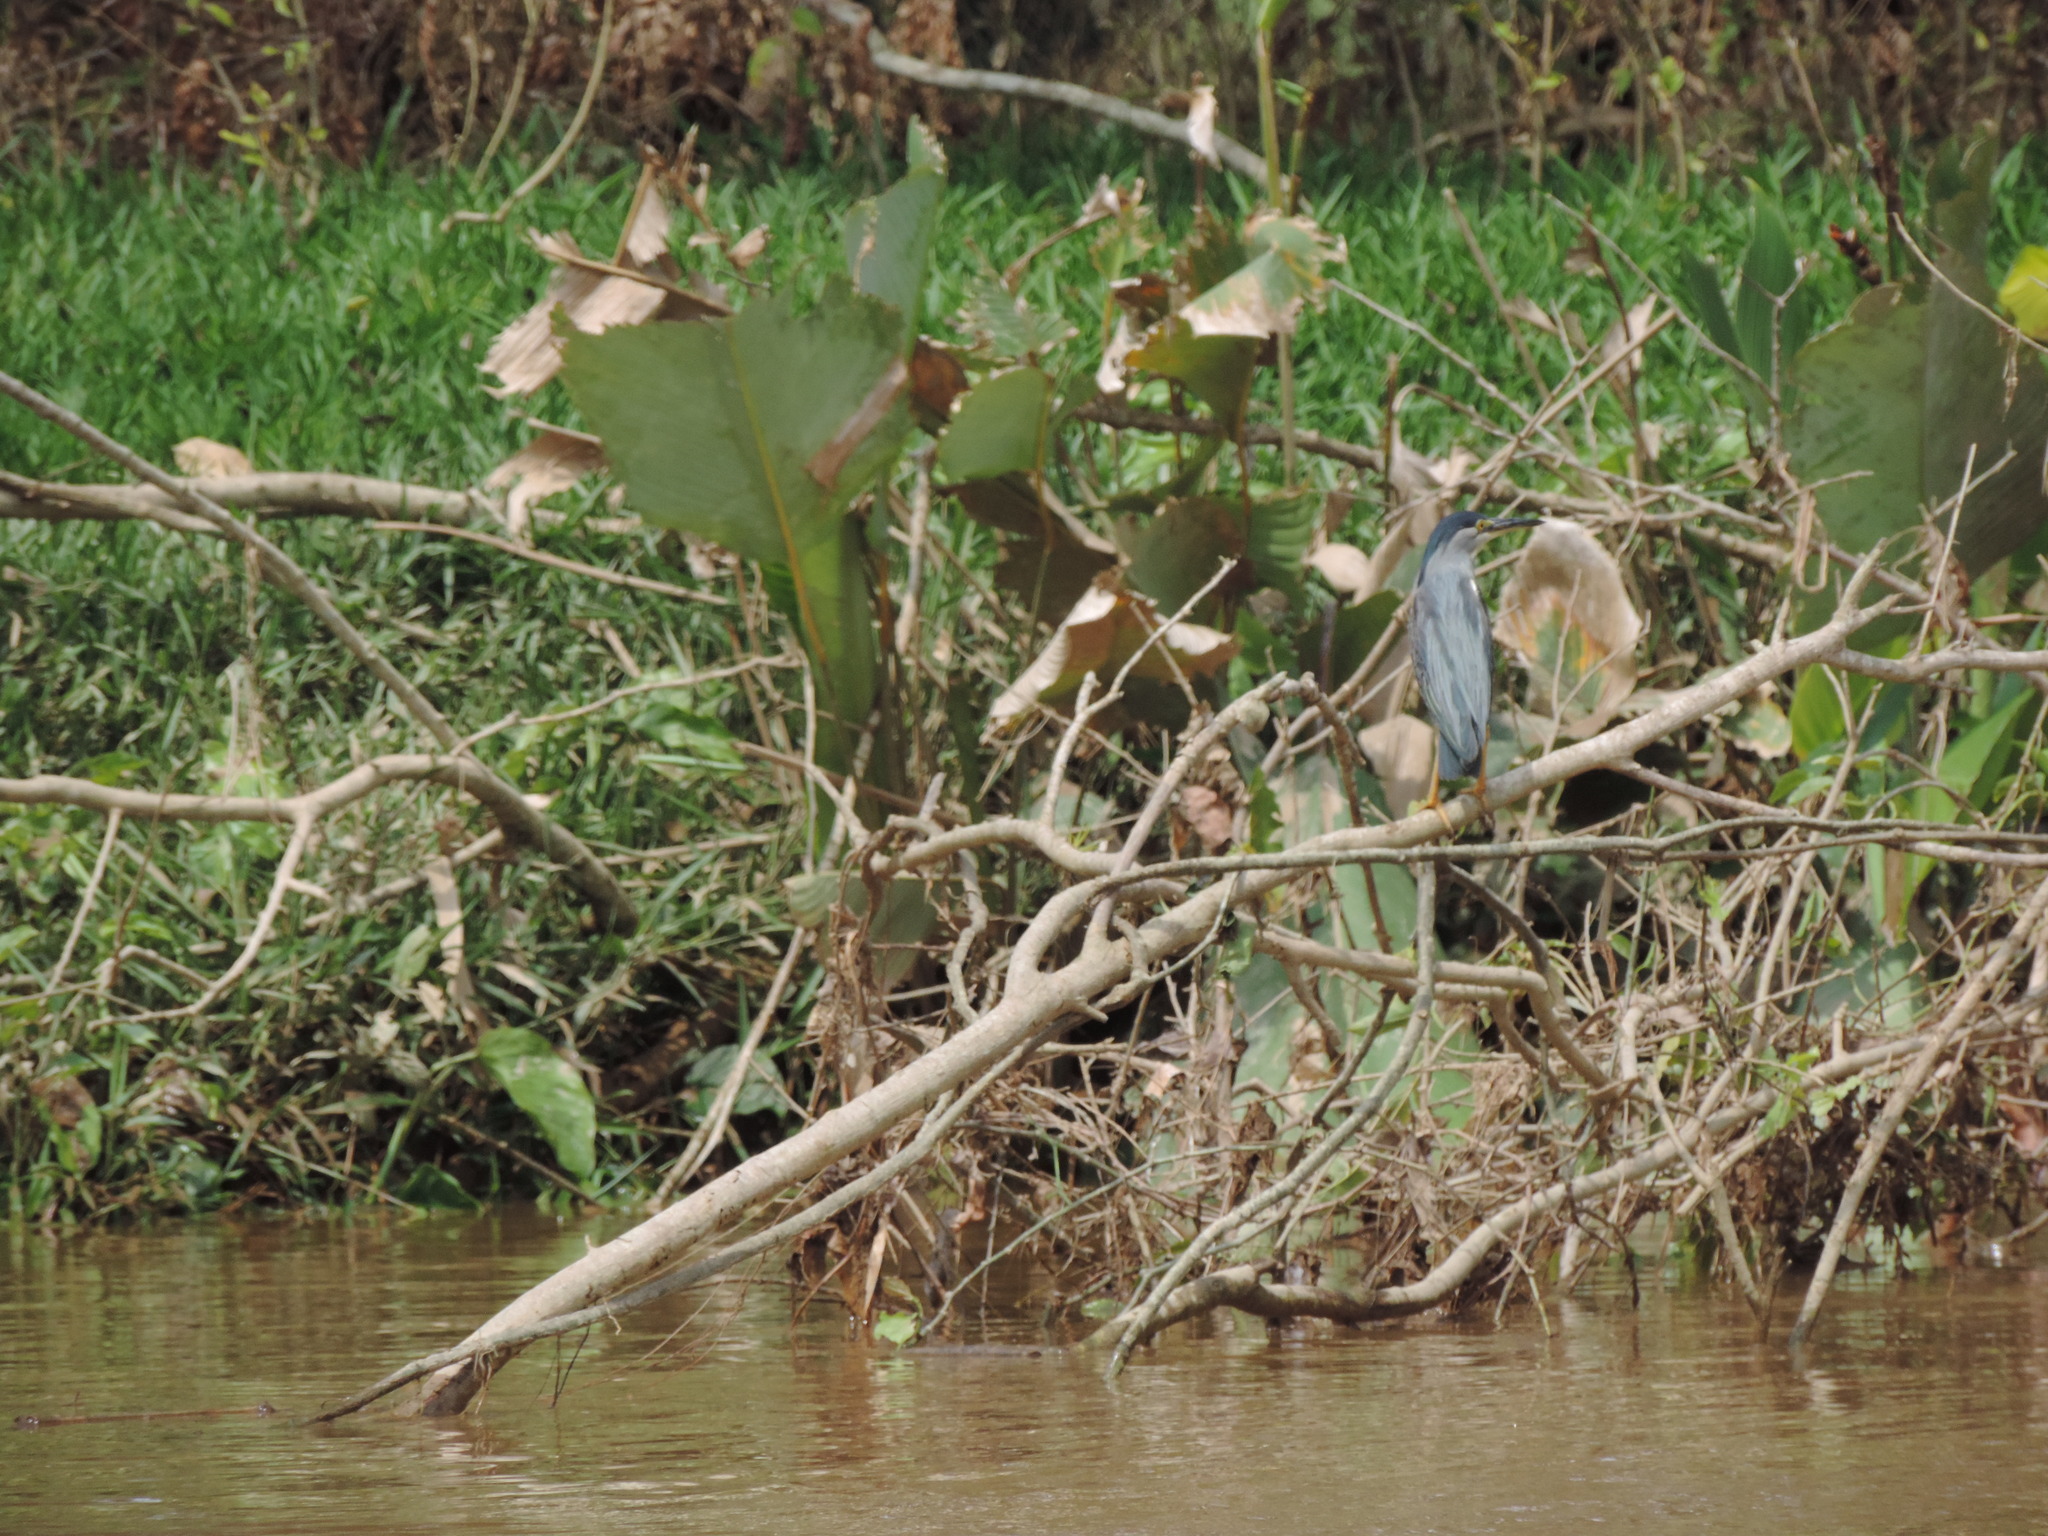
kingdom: Animalia
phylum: Chordata
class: Aves
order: Pelecaniformes
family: Ardeidae
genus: Butorides
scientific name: Butorides striata
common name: Striated heron
